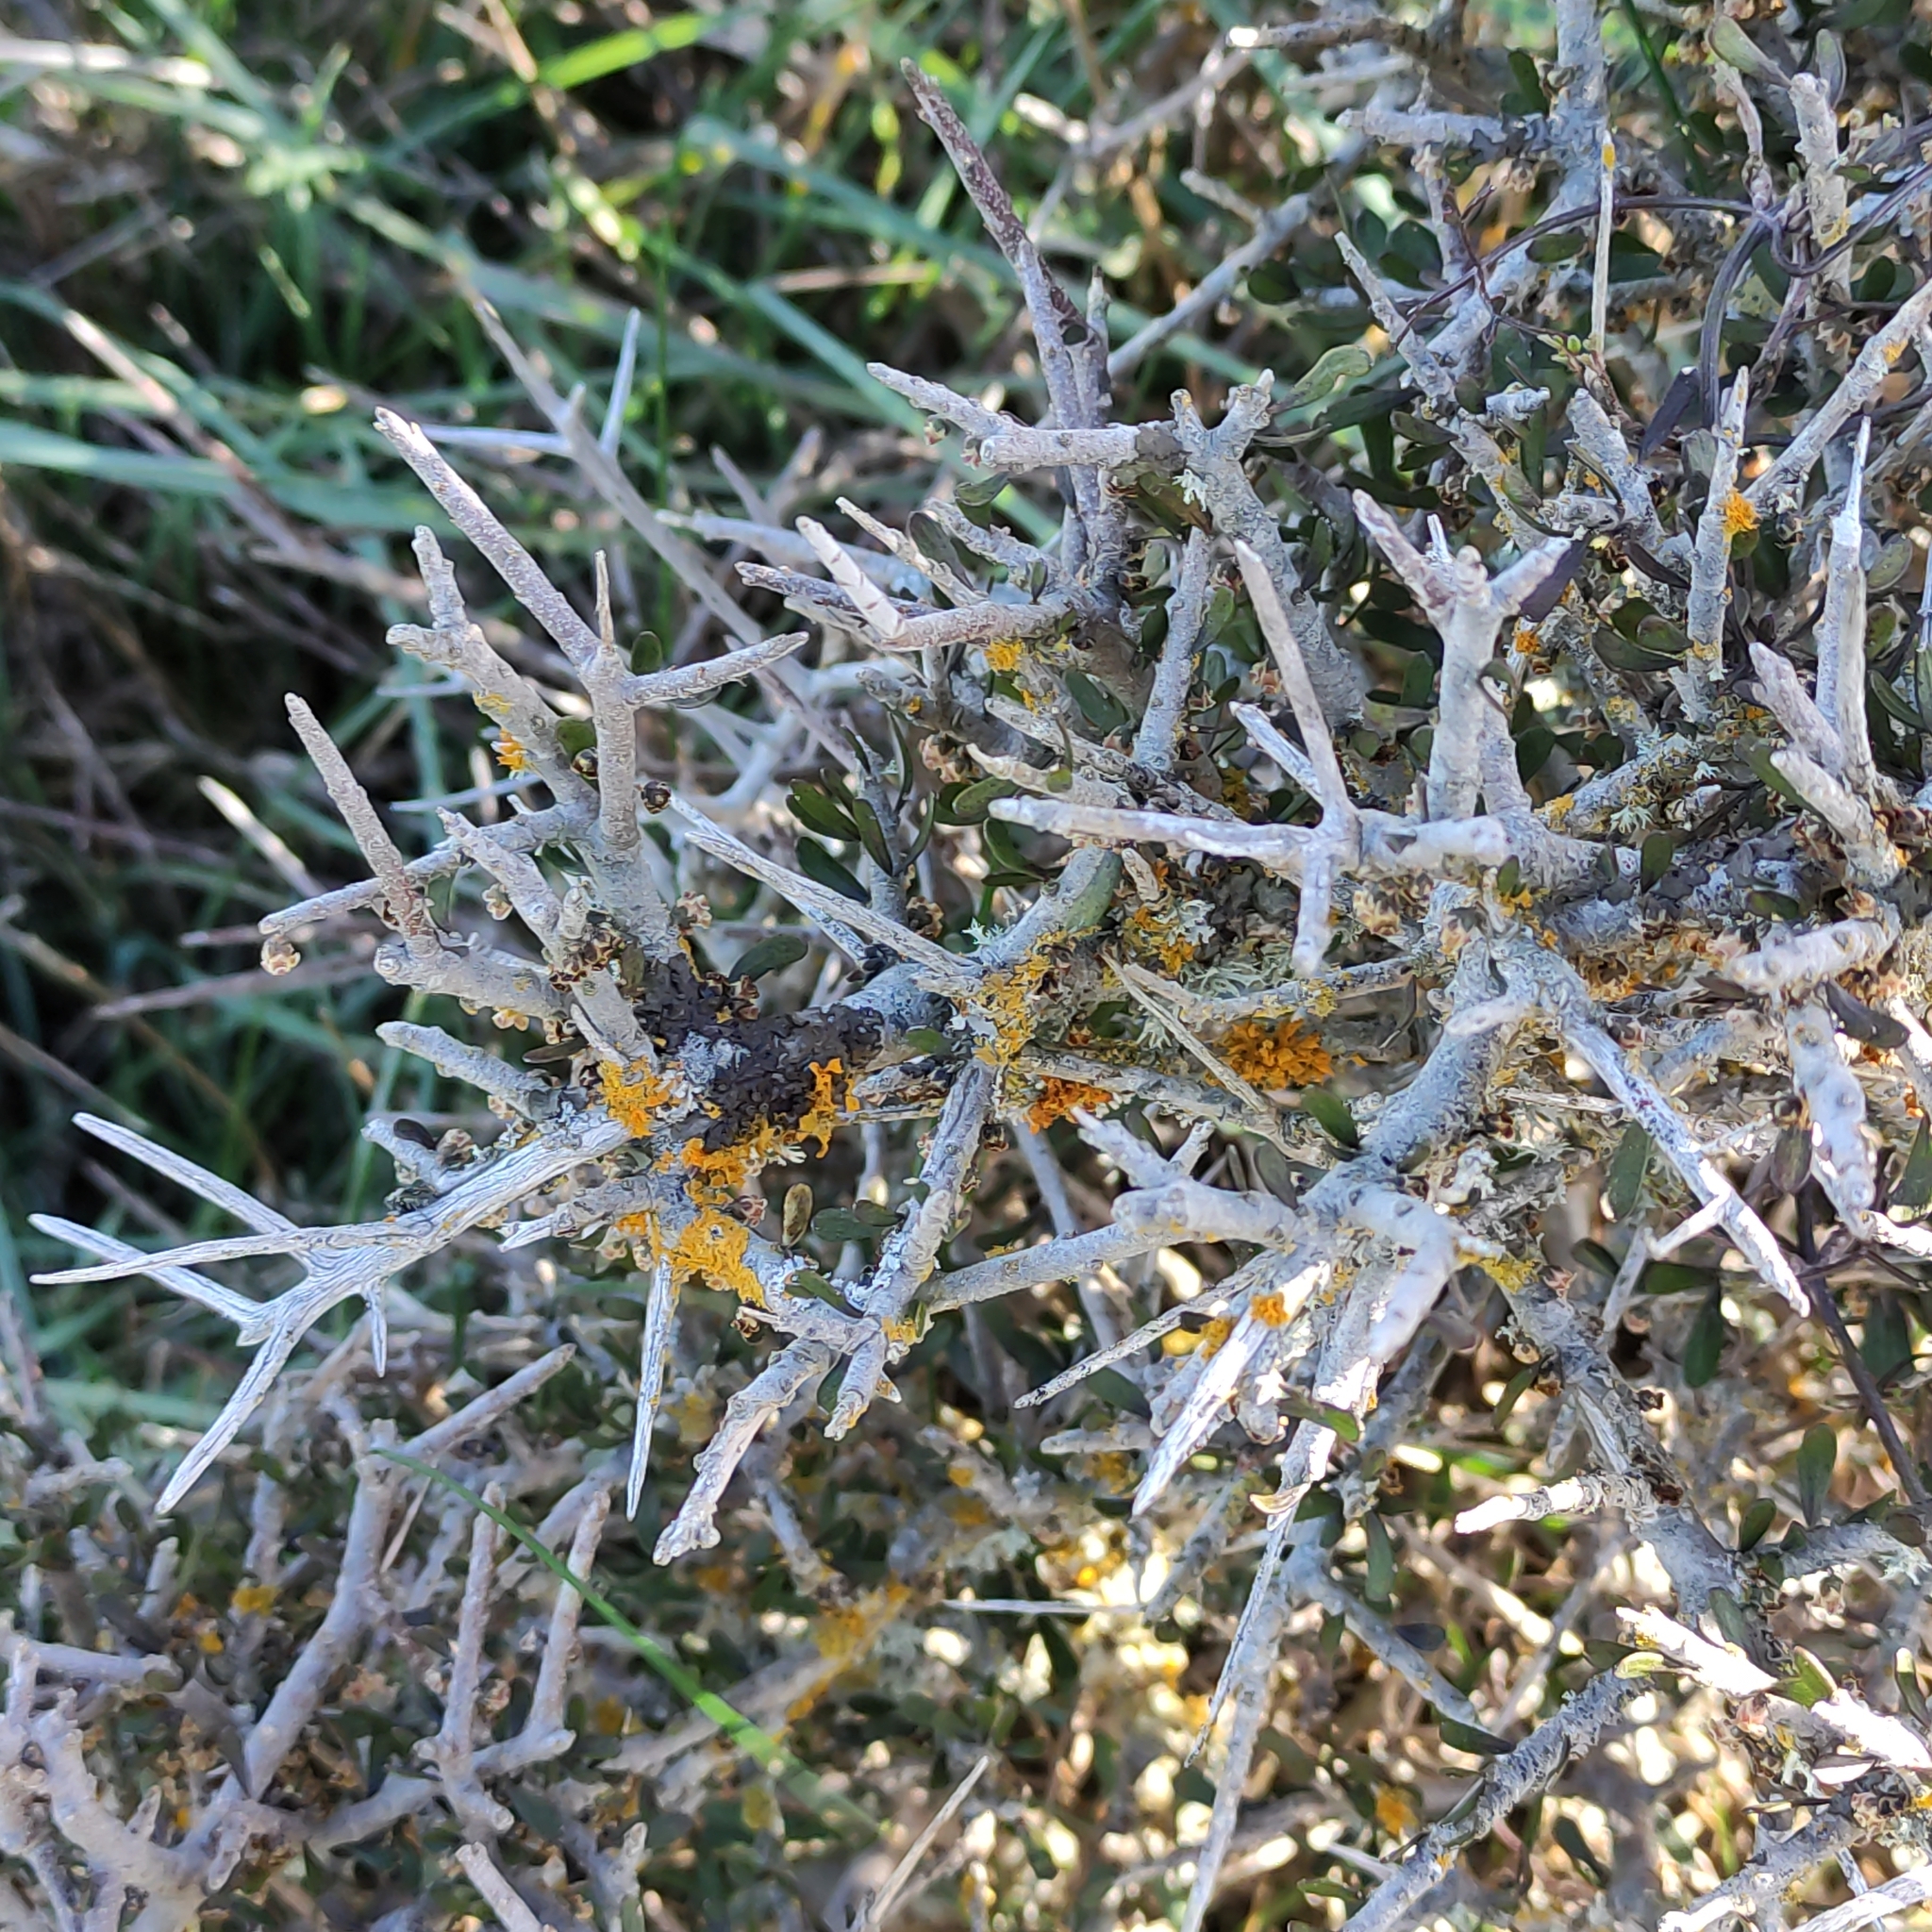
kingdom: Plantae
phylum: Tracheophyta
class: Magnoliopsida
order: Malpighiales
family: Violaceae
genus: Melicytus
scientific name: Melicytus alpinus
